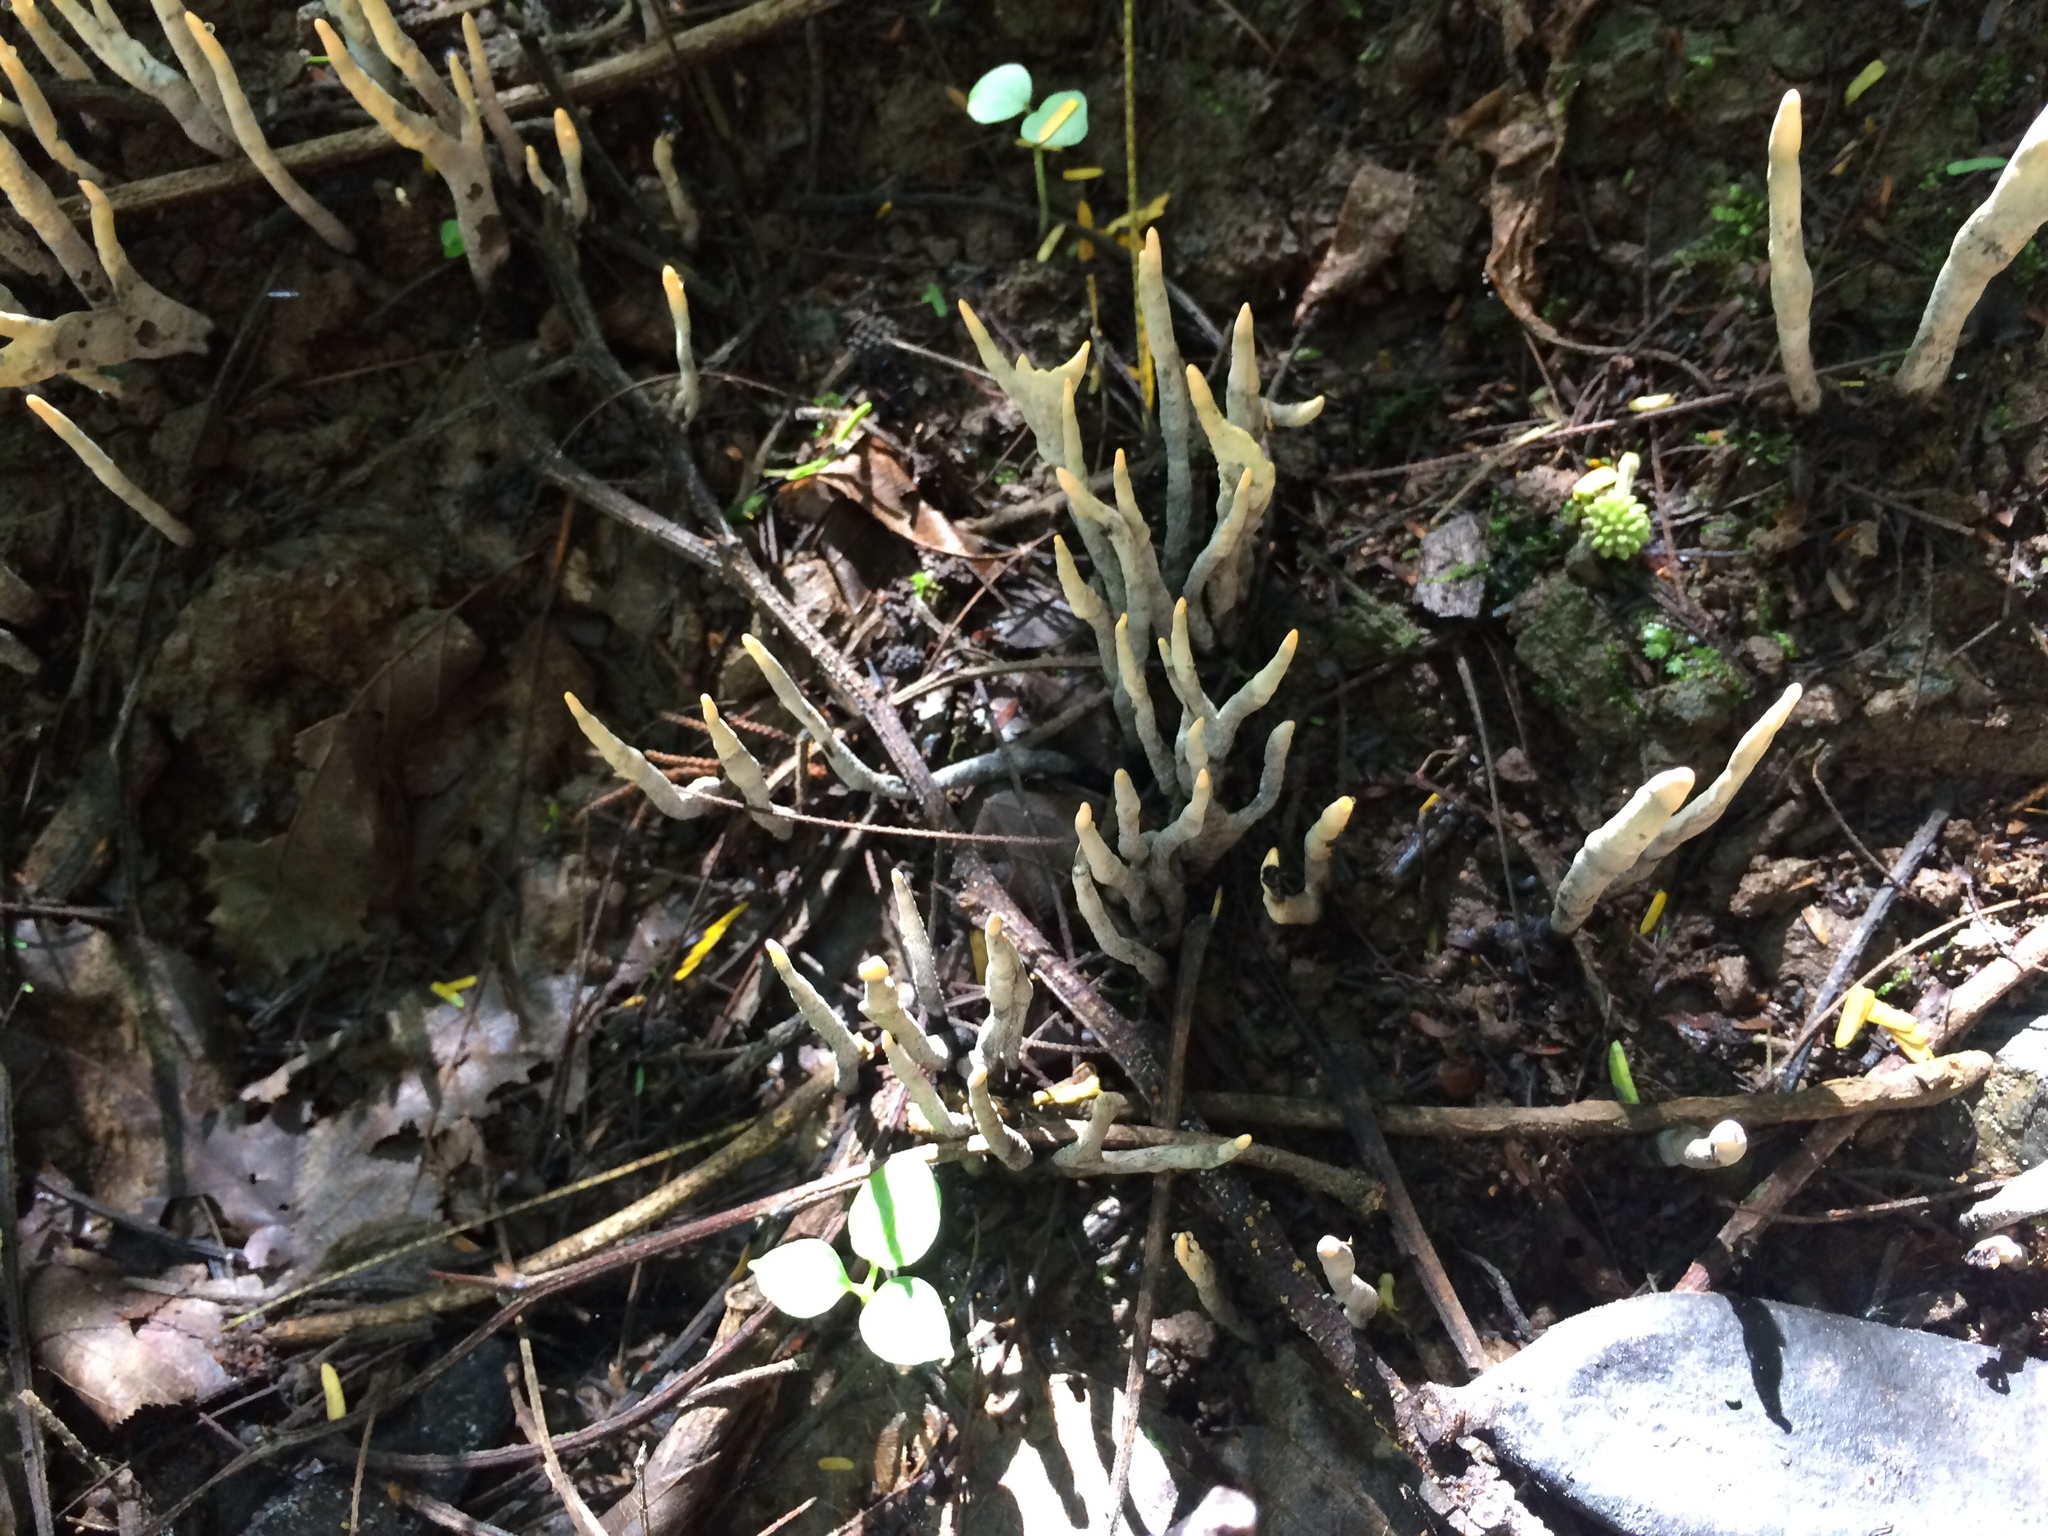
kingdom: Fungi
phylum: Ascomycota
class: Sordariomycetes
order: Xylariales
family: Xylariaceae
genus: Xylaria
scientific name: Xylaria hypoxylon
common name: Candle-snuff fungus
